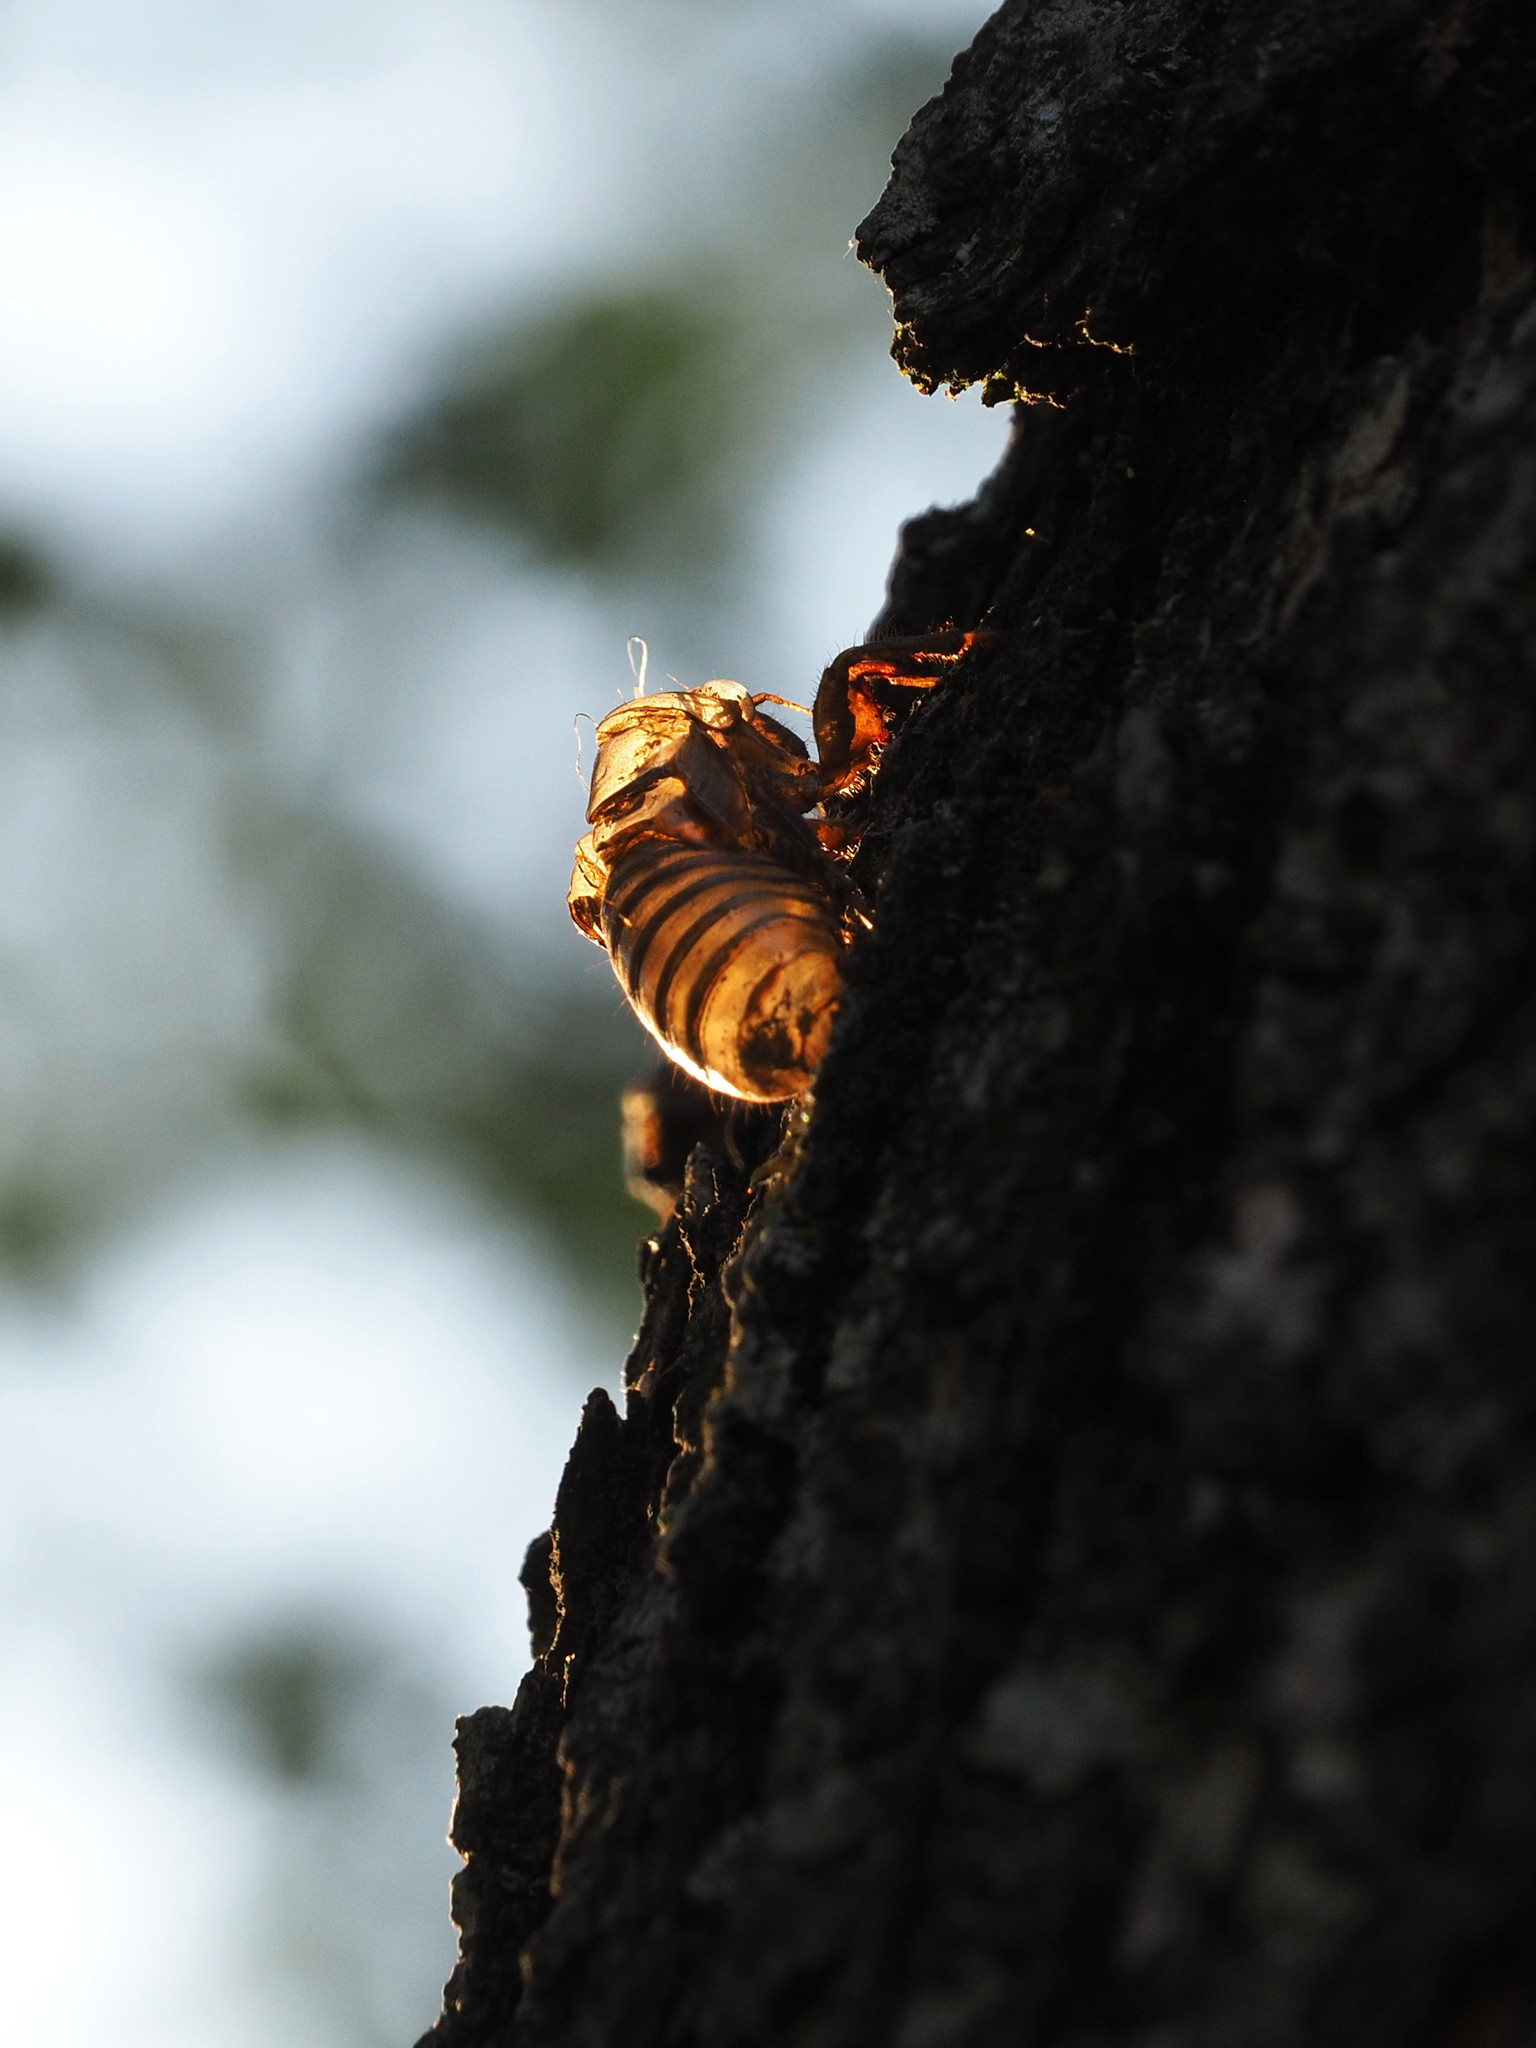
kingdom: Animalia
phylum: Arthropoda
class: Insecta
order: Hemiptera
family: Cicadidae
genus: Magicicada
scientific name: Magicicada
